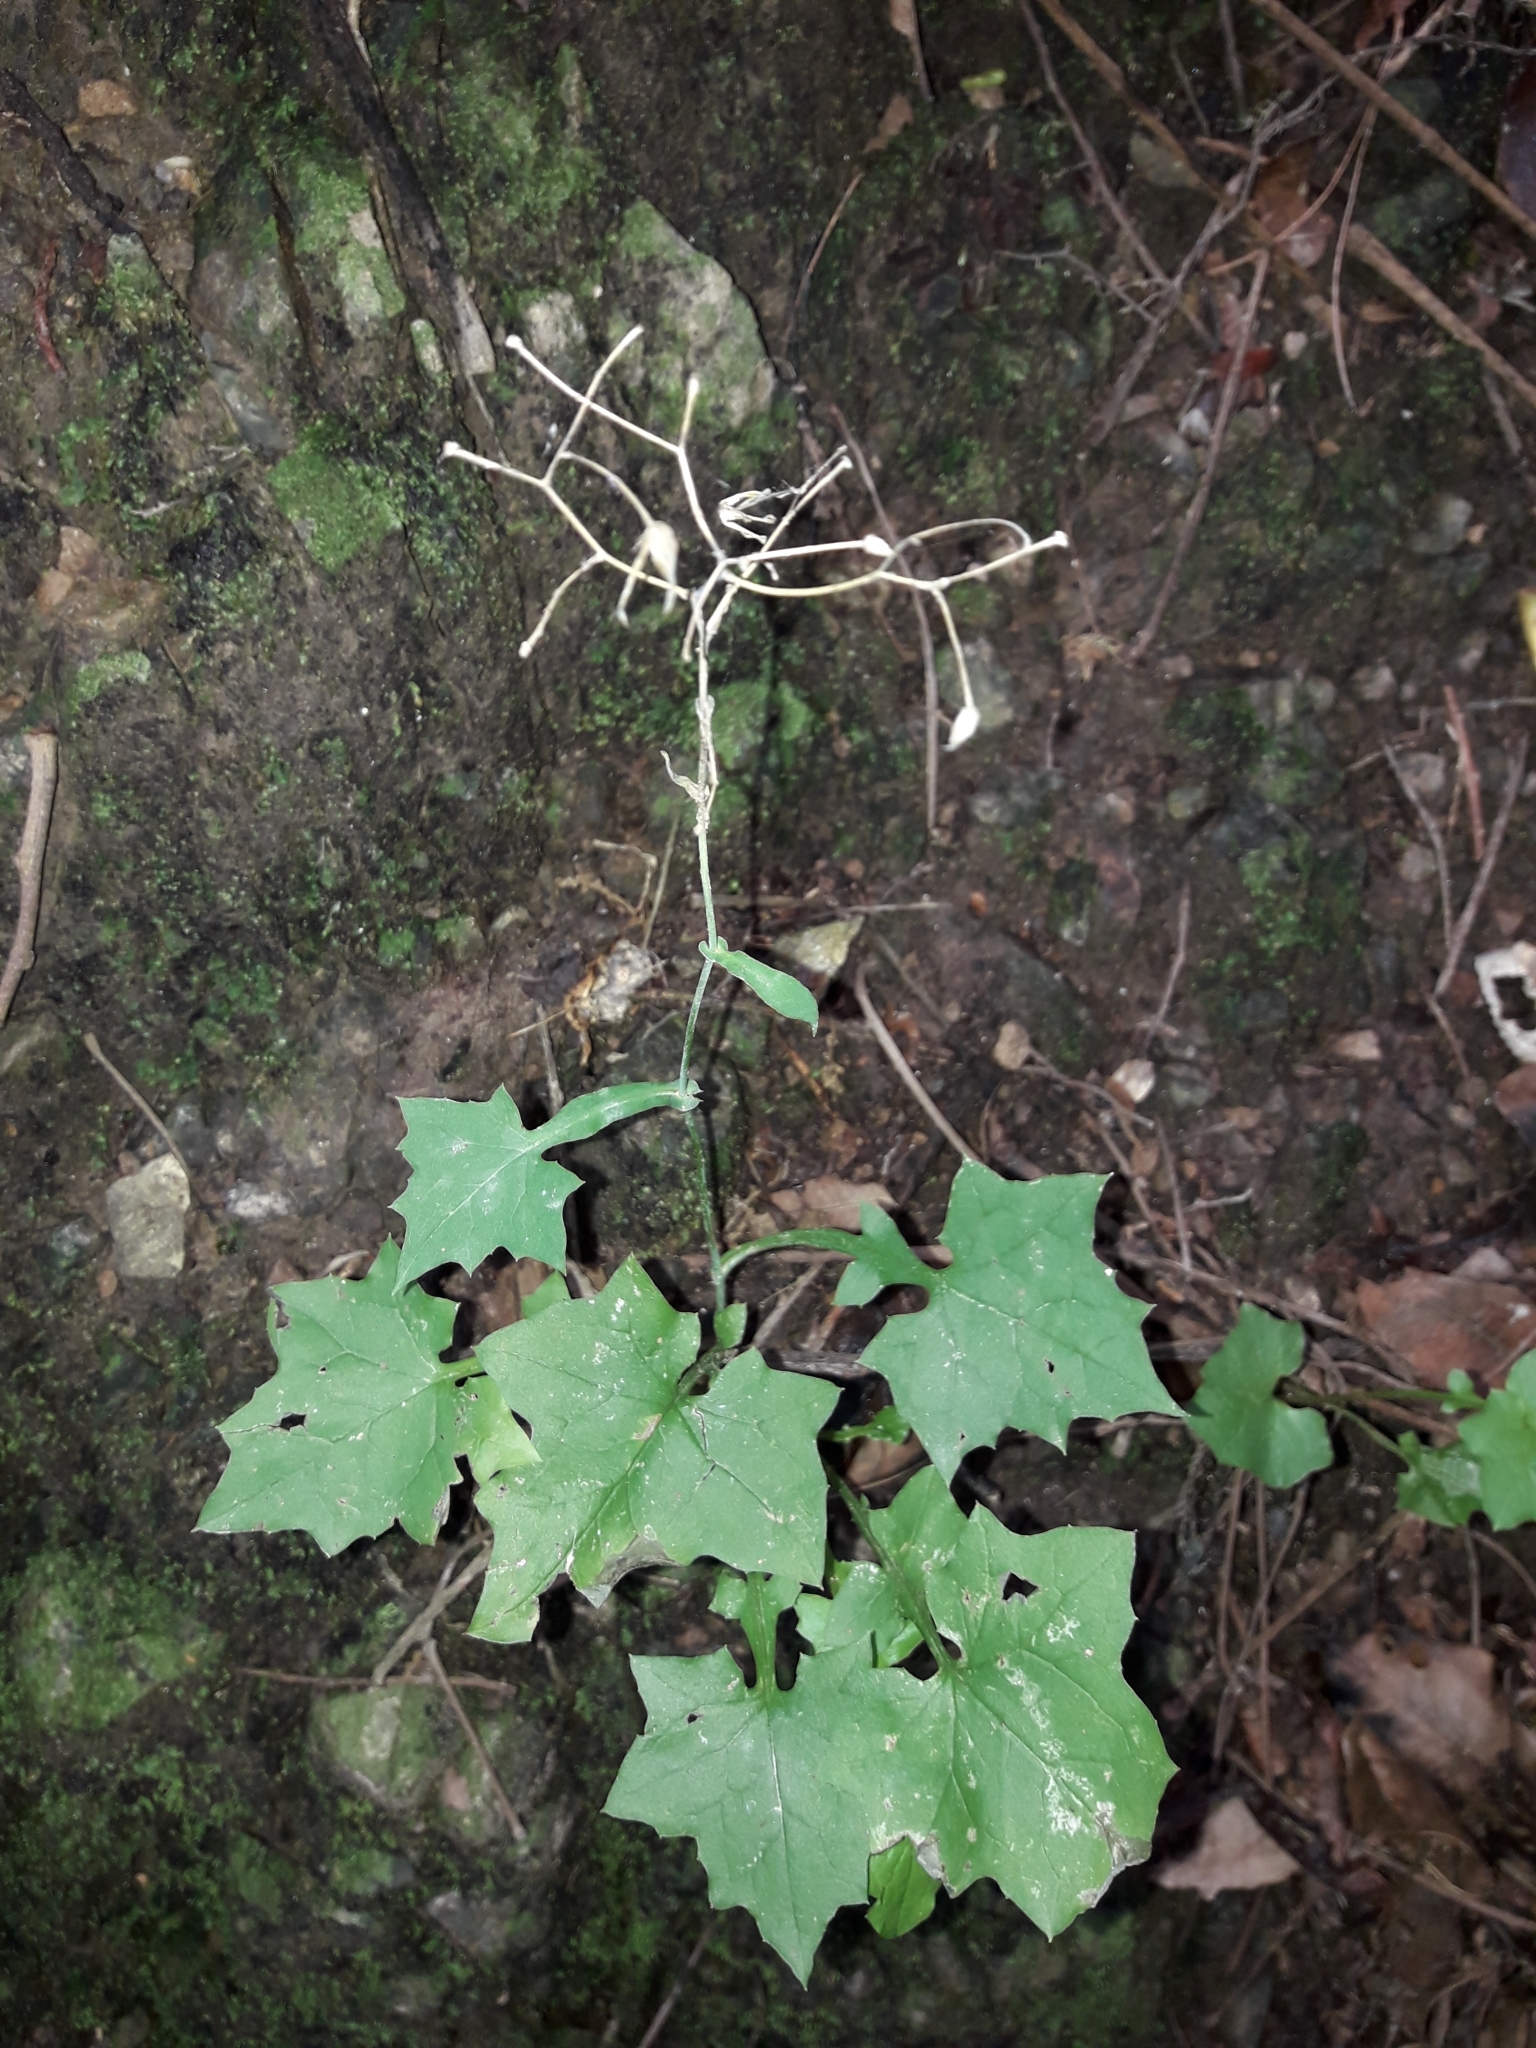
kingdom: Plantae
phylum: Tracheophyta
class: Magnoliopsida
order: Asterales
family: Asteraceae
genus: Mycelis
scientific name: Mycelis muralis
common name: Wall lettuce
